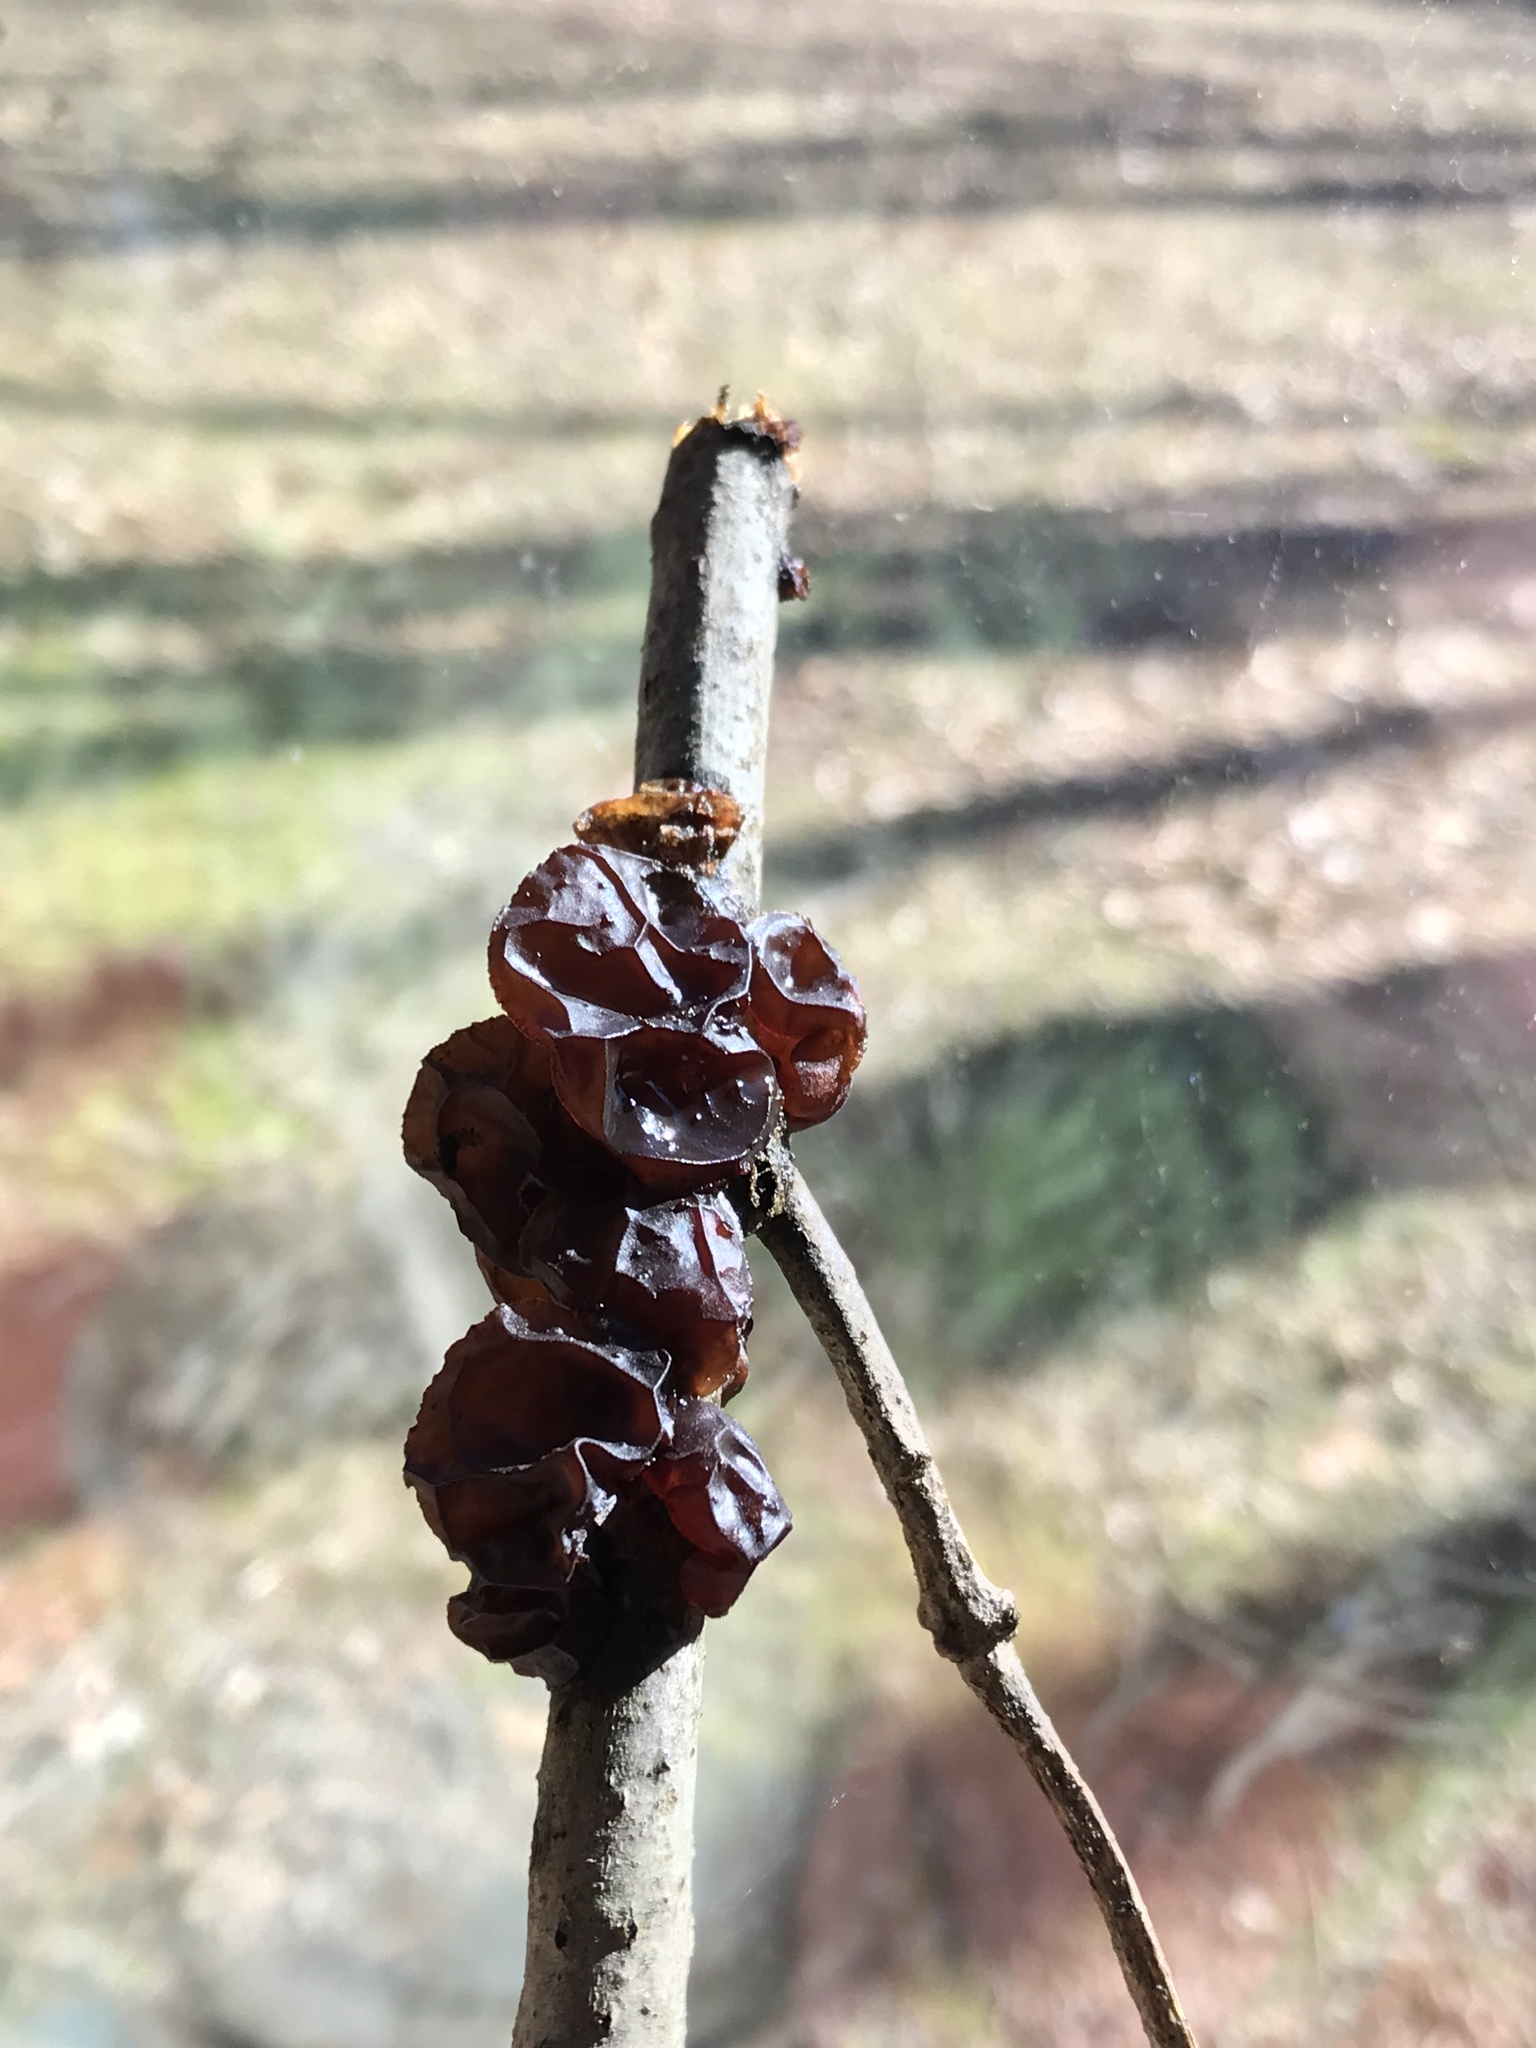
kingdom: Fungi
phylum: Basidiomycota
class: Agaricomycetes
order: Auriculariales
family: Auriculariaceae
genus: Exidia
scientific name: Exidia
